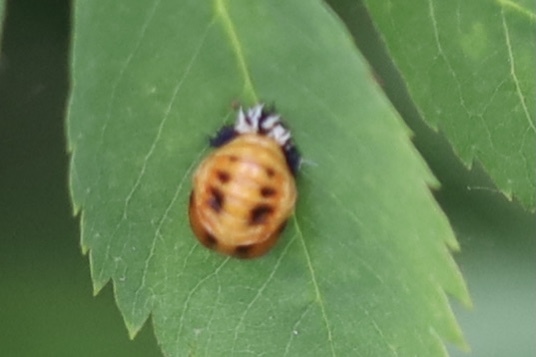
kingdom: Animalia
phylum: Arthropoda
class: Insecta
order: Coleoptera
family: Coccinellidae
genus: Harmonia
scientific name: Harmonia axyridis
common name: Harlequin ladybird
